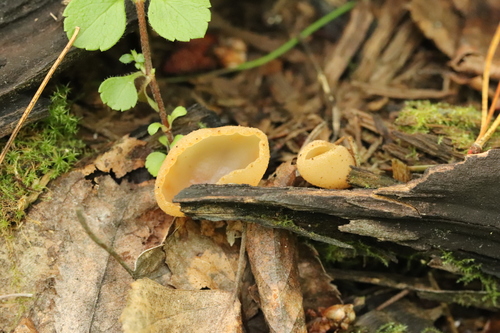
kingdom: Fungi
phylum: Ascomycota
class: Pezizomycetes
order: Pezizales
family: Pezizaceae
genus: Peziza
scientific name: Peziza
